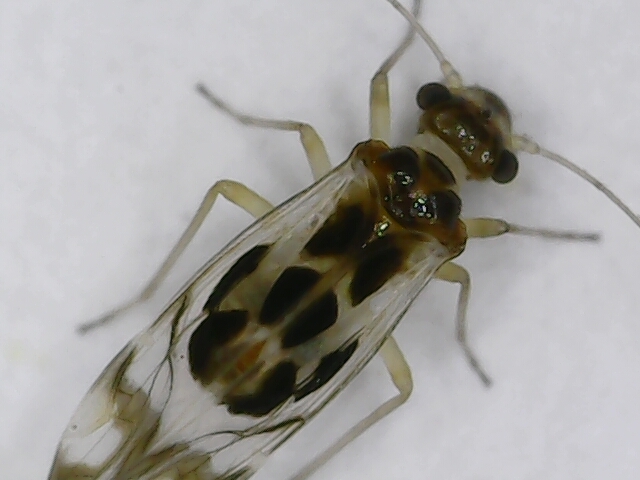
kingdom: Animalia
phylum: Arthropoda
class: Insecta
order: Psocodea
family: Stenopsocidae
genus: Graphopsocus
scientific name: Graphopsocus cruciatus
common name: Lizard bark louse
